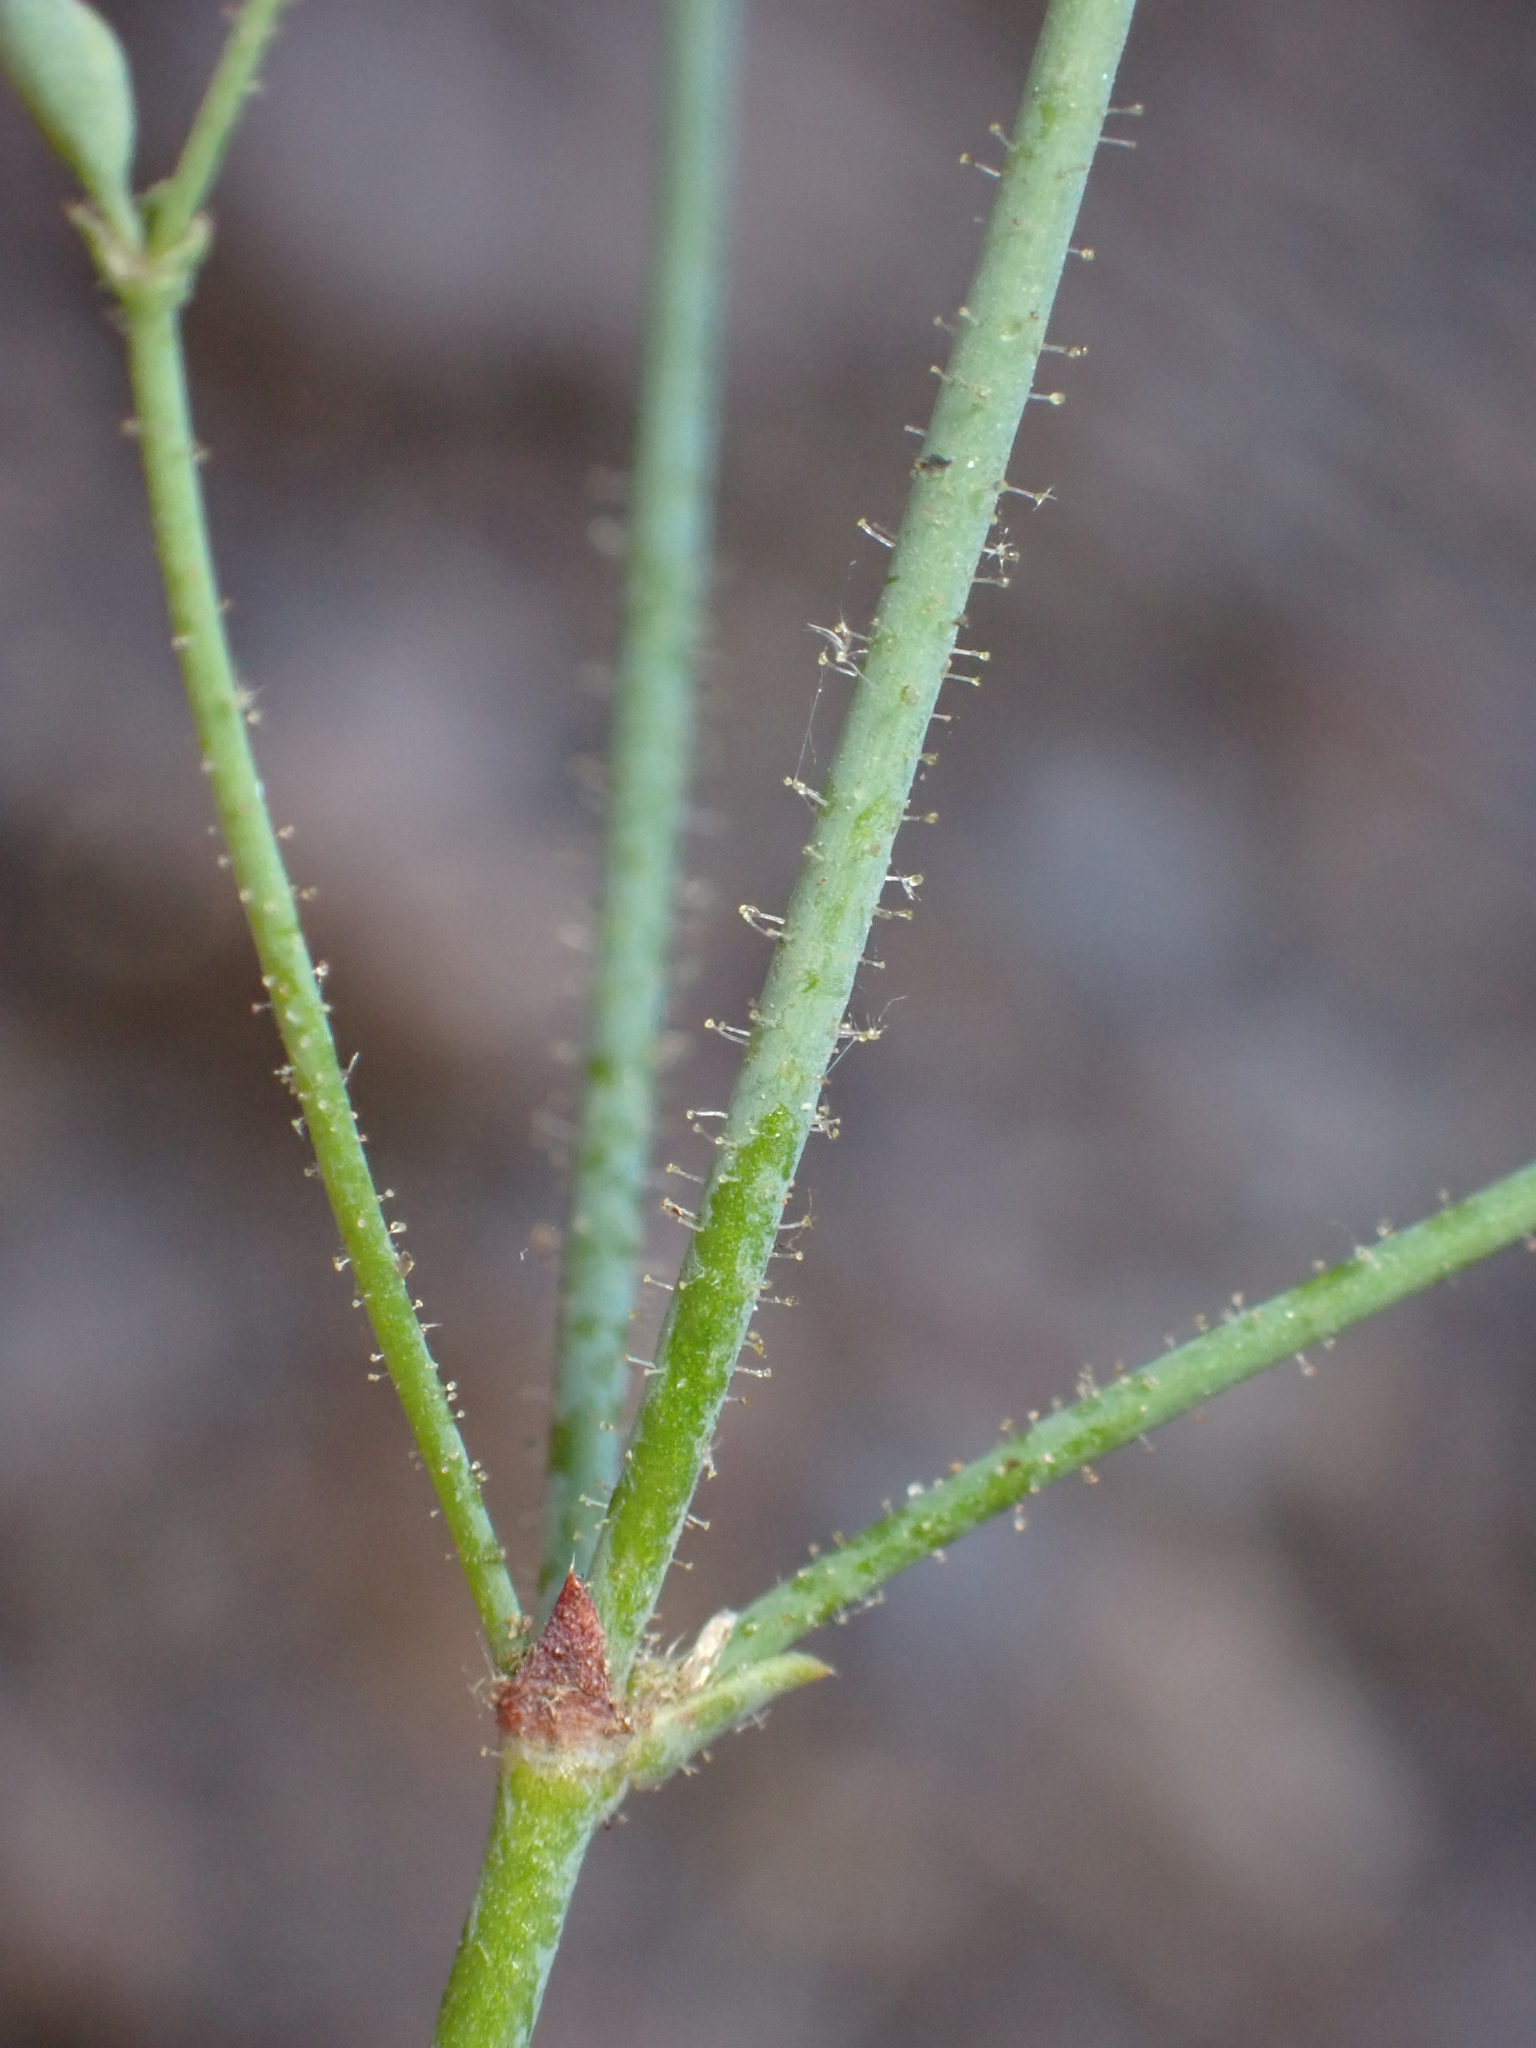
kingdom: Plantae
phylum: Tracheophyta
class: Magnoliopsida
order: Caryophyllales
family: Polygonaceae
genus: Eriogonum
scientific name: Eriogonum apiculatum
